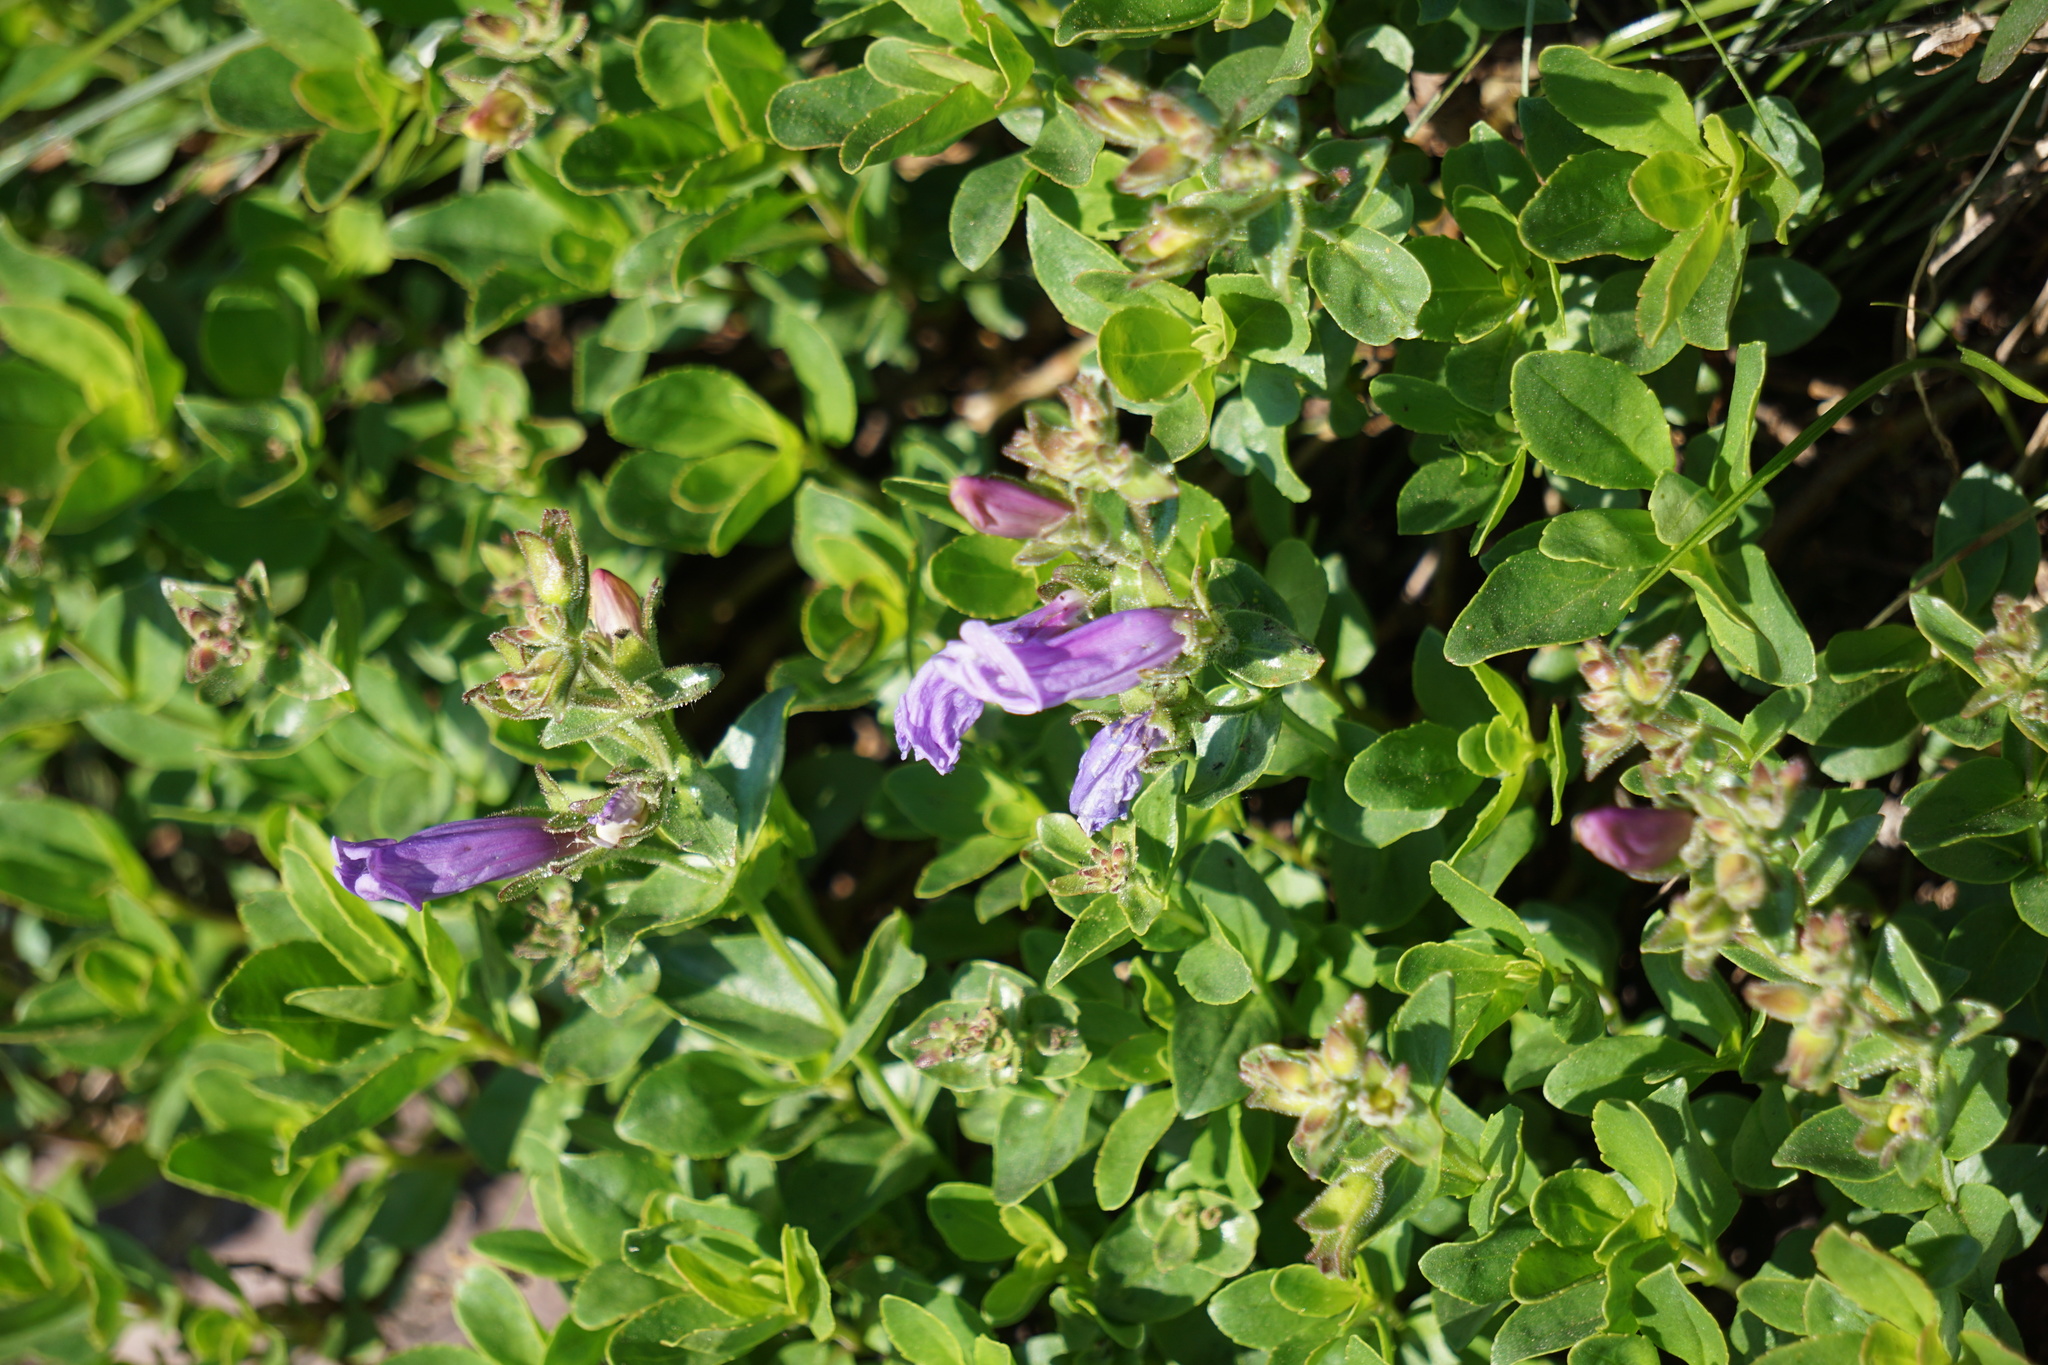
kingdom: Plantae
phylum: Tracheophyta
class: Magnoliopsida
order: Lamiales
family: Plantaginaceae
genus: Penstemon
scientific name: Penstemon ellipticus
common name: Alpine beardtongue
